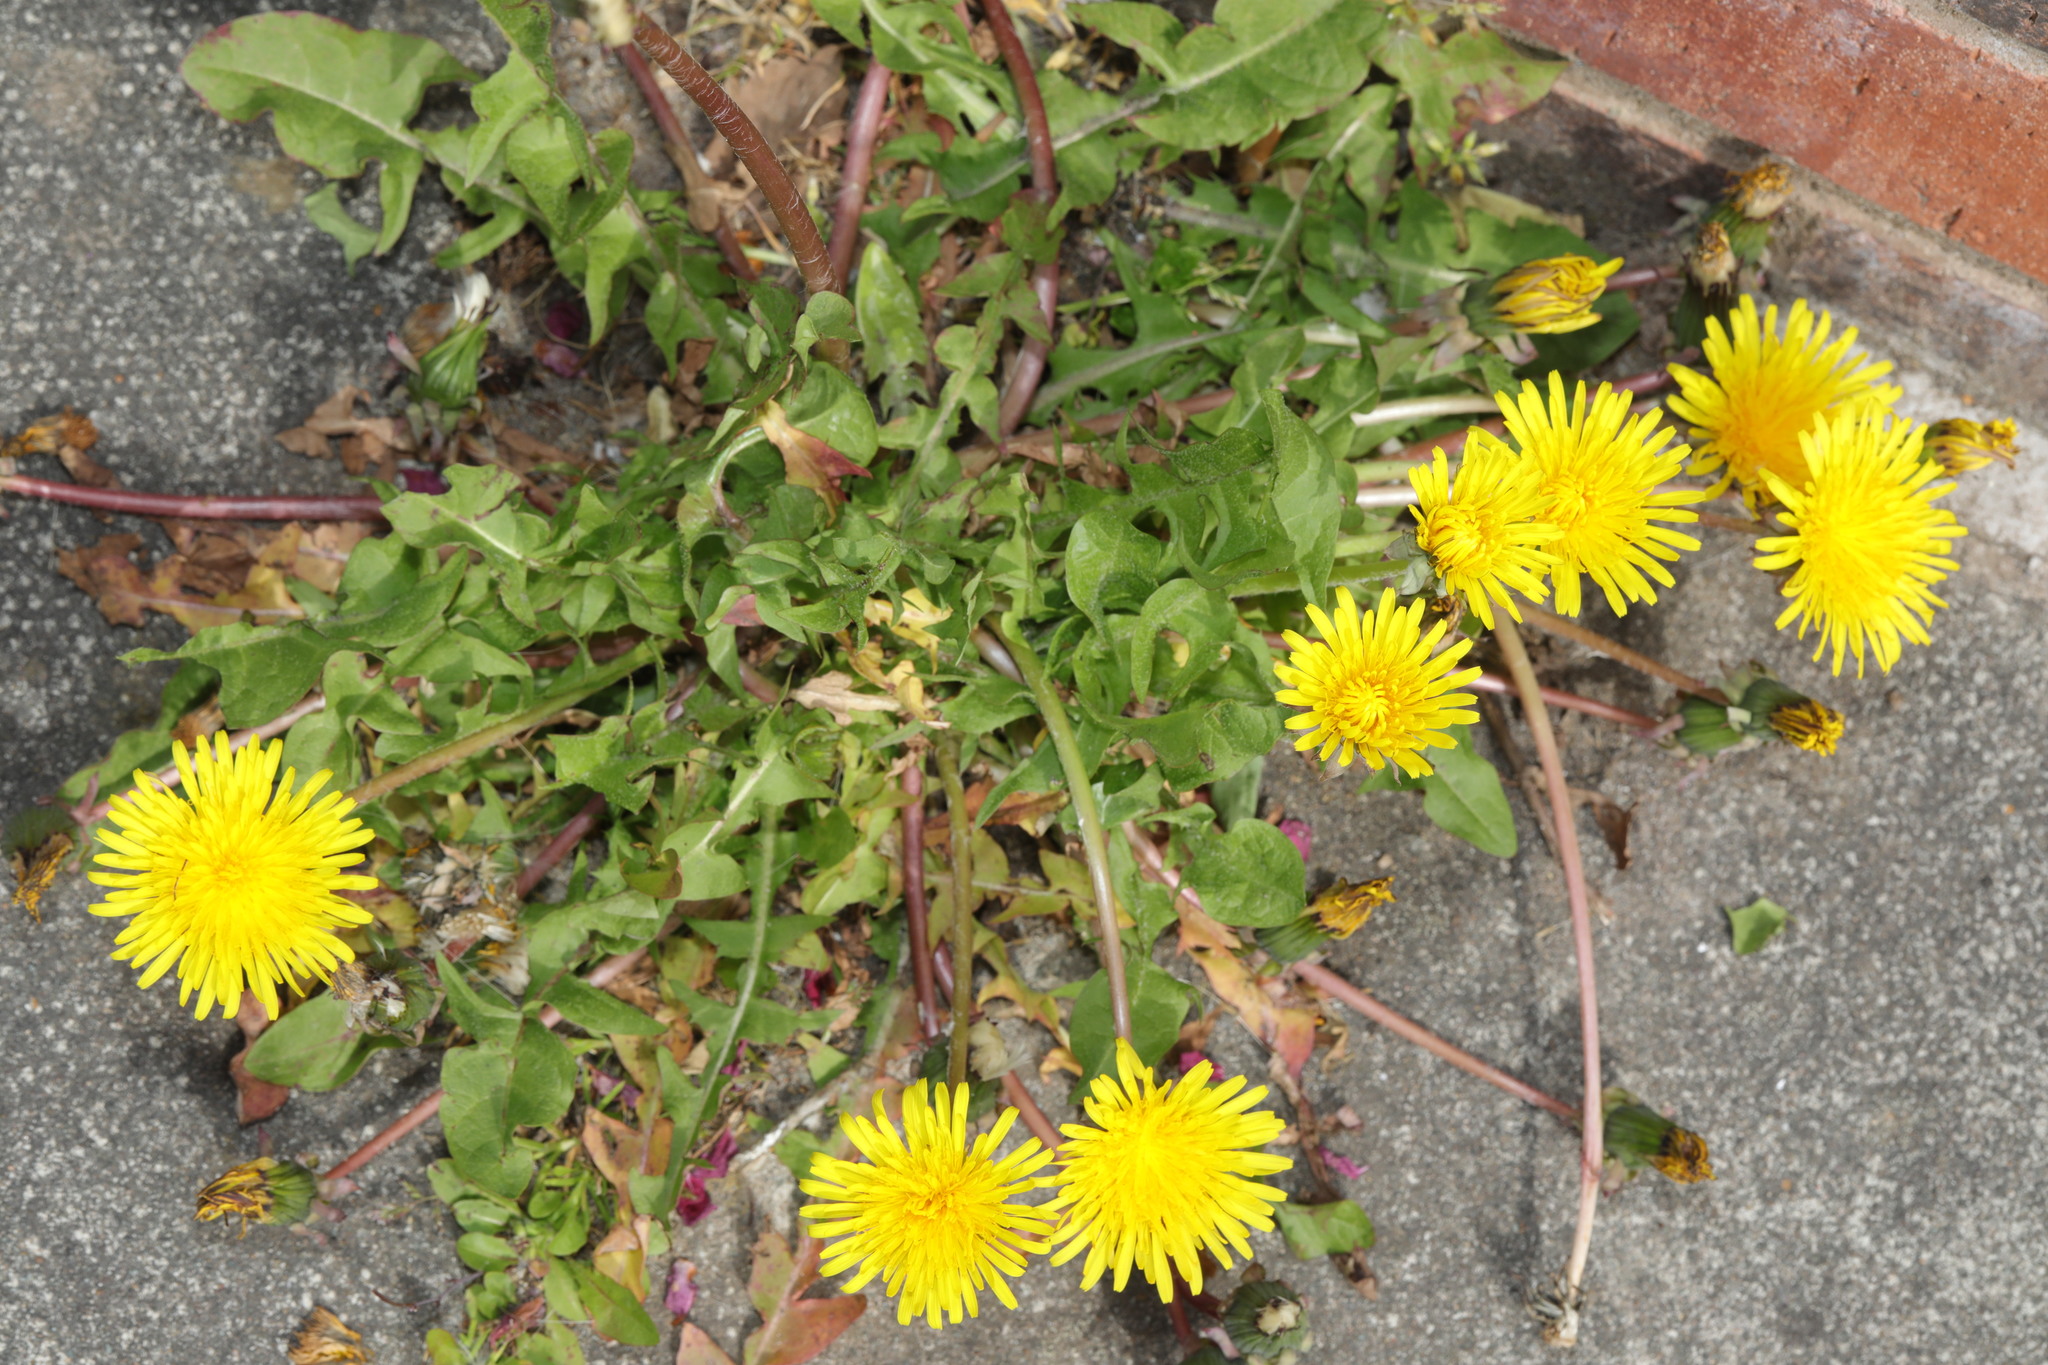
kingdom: Plantae
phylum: Tracheophyta
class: Magnoliopsida
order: Asterales
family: Asteraceae
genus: Taraxacum
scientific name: Taraxacum officinale
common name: Common dandelion
